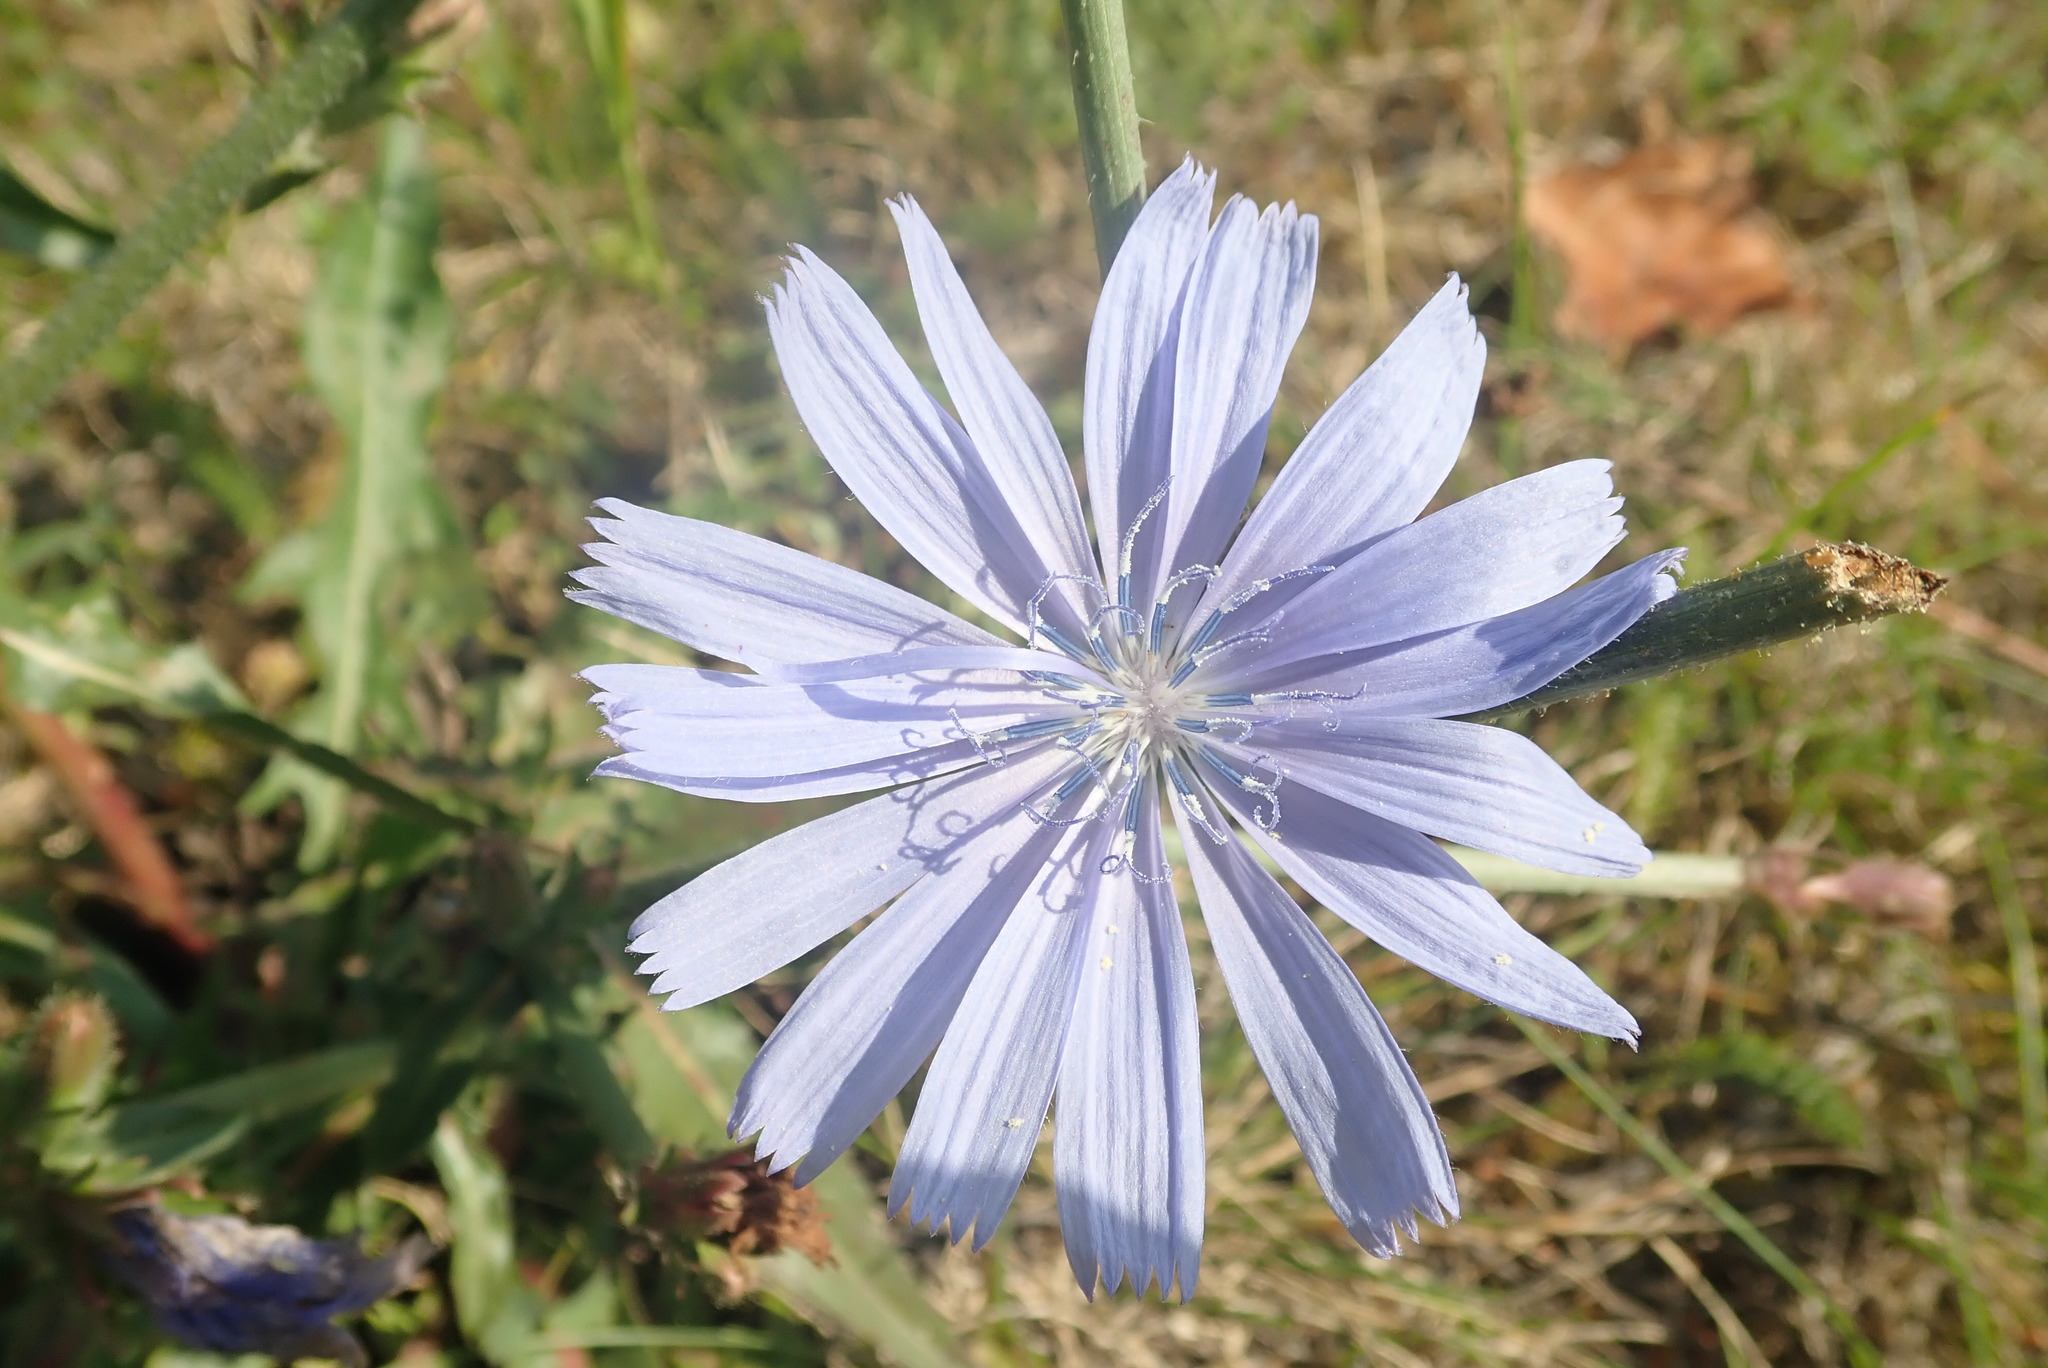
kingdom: Plantae
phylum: Tracheophyta
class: Magnoliopsida
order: Asterales
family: Asteraceae
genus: Cichorium
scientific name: Cichorium intybus
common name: Chicory
